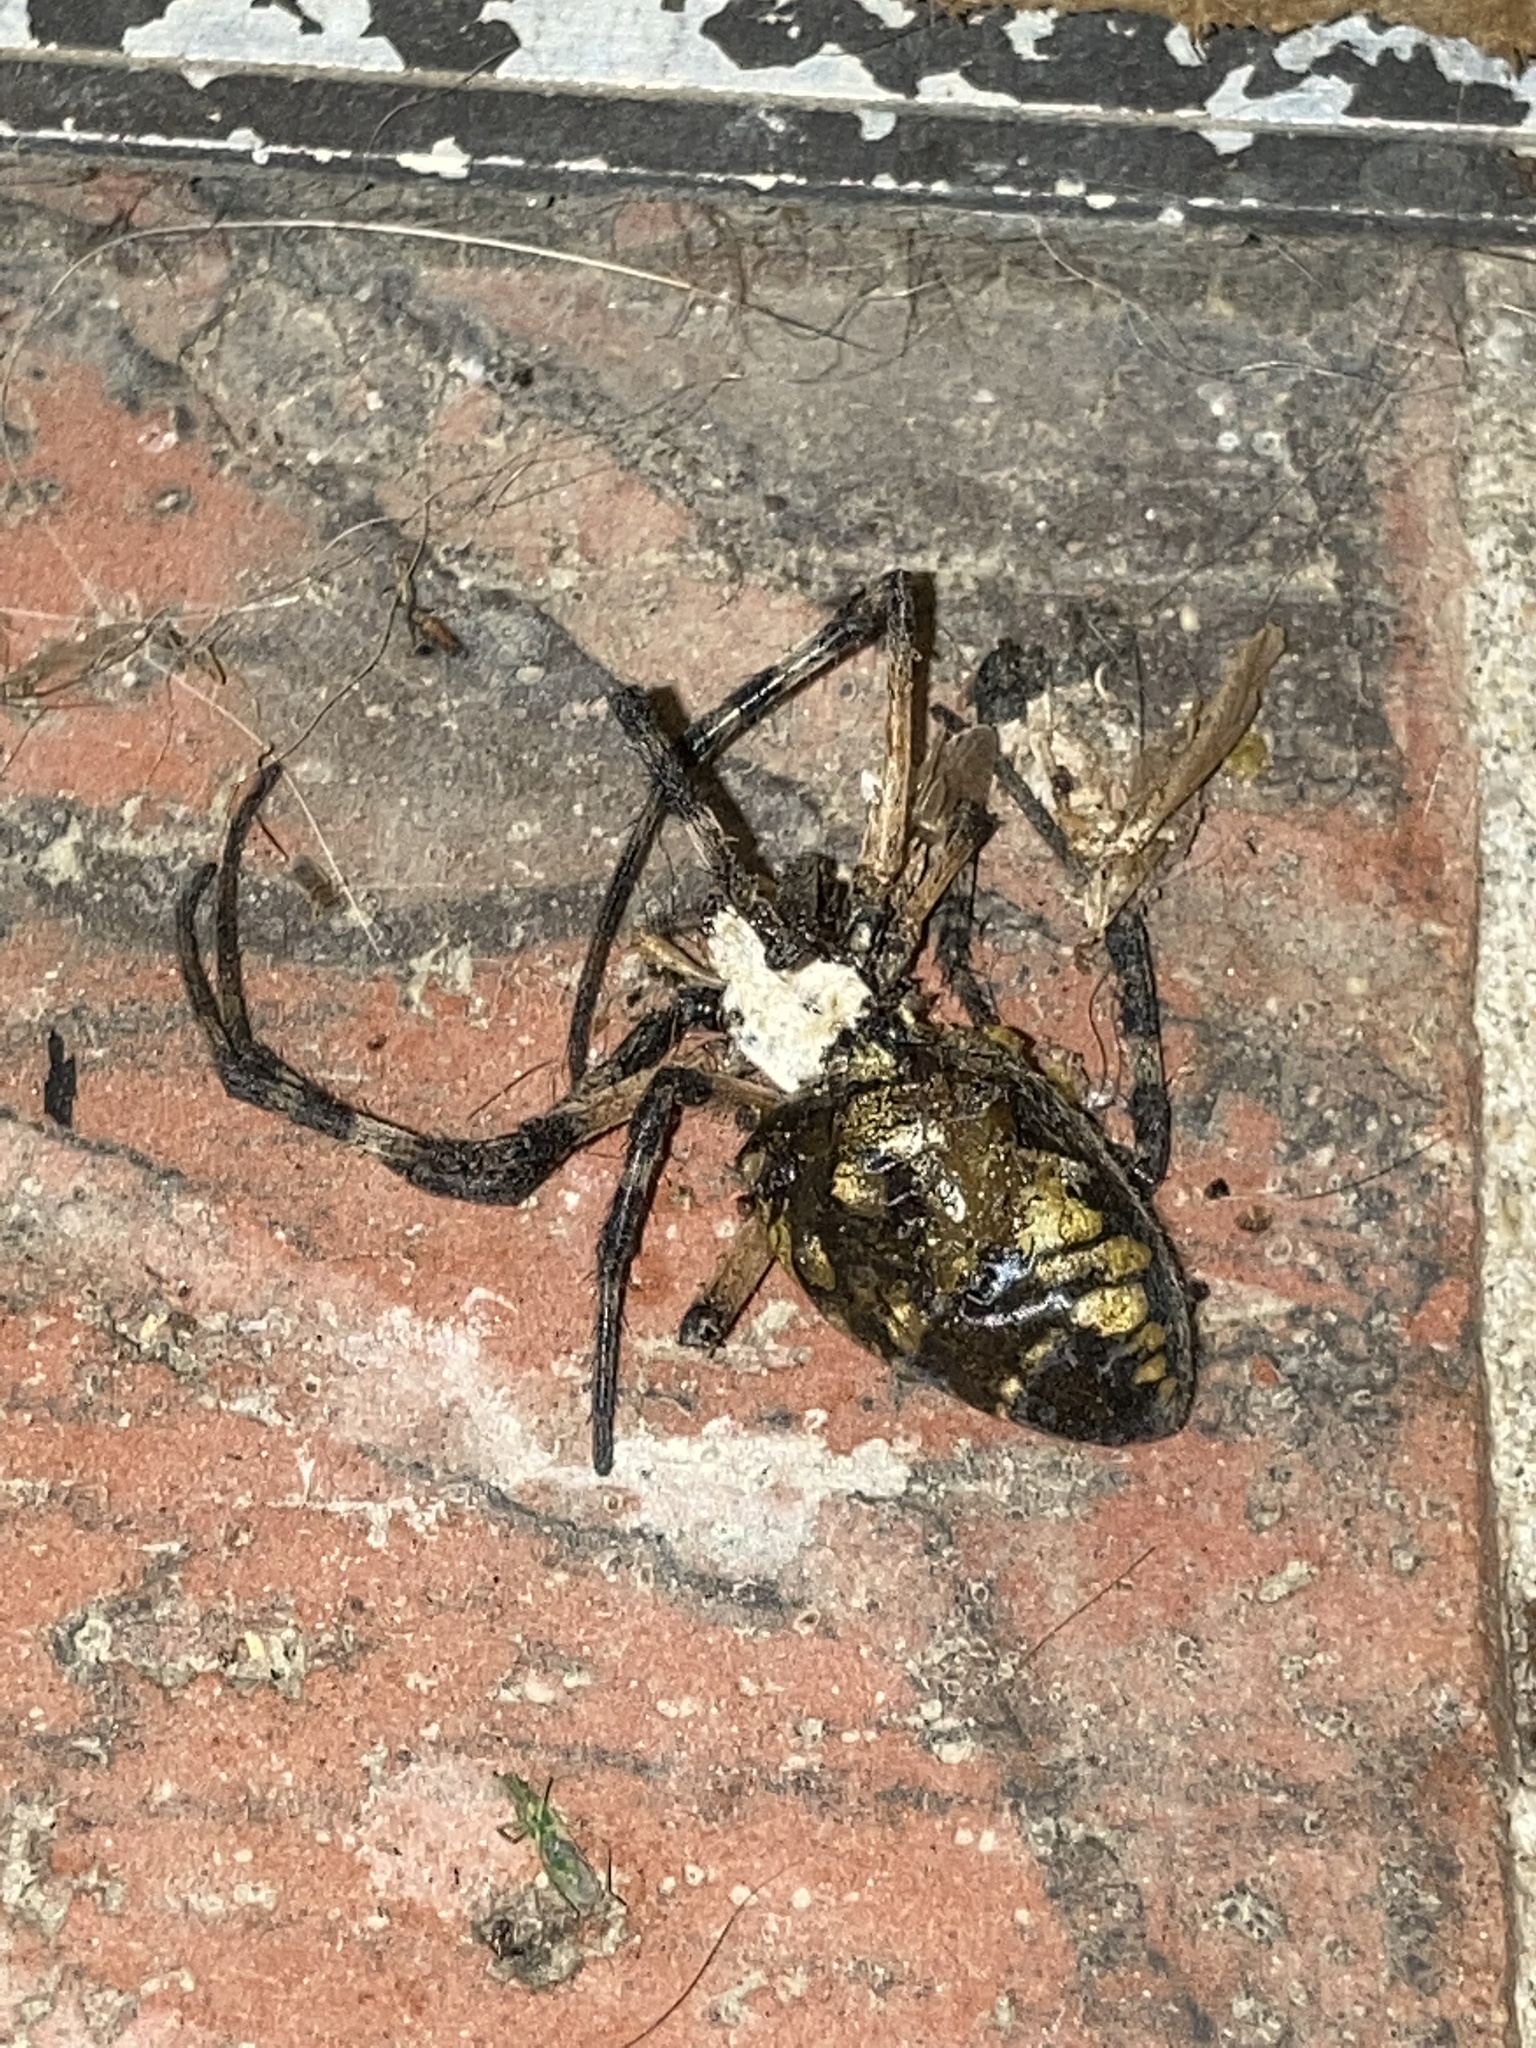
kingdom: Animalia
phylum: Arthropoda
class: Arachnida
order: Araneae
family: Araneidae
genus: Argiope
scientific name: Argiope aurantia
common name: Orb weavers
